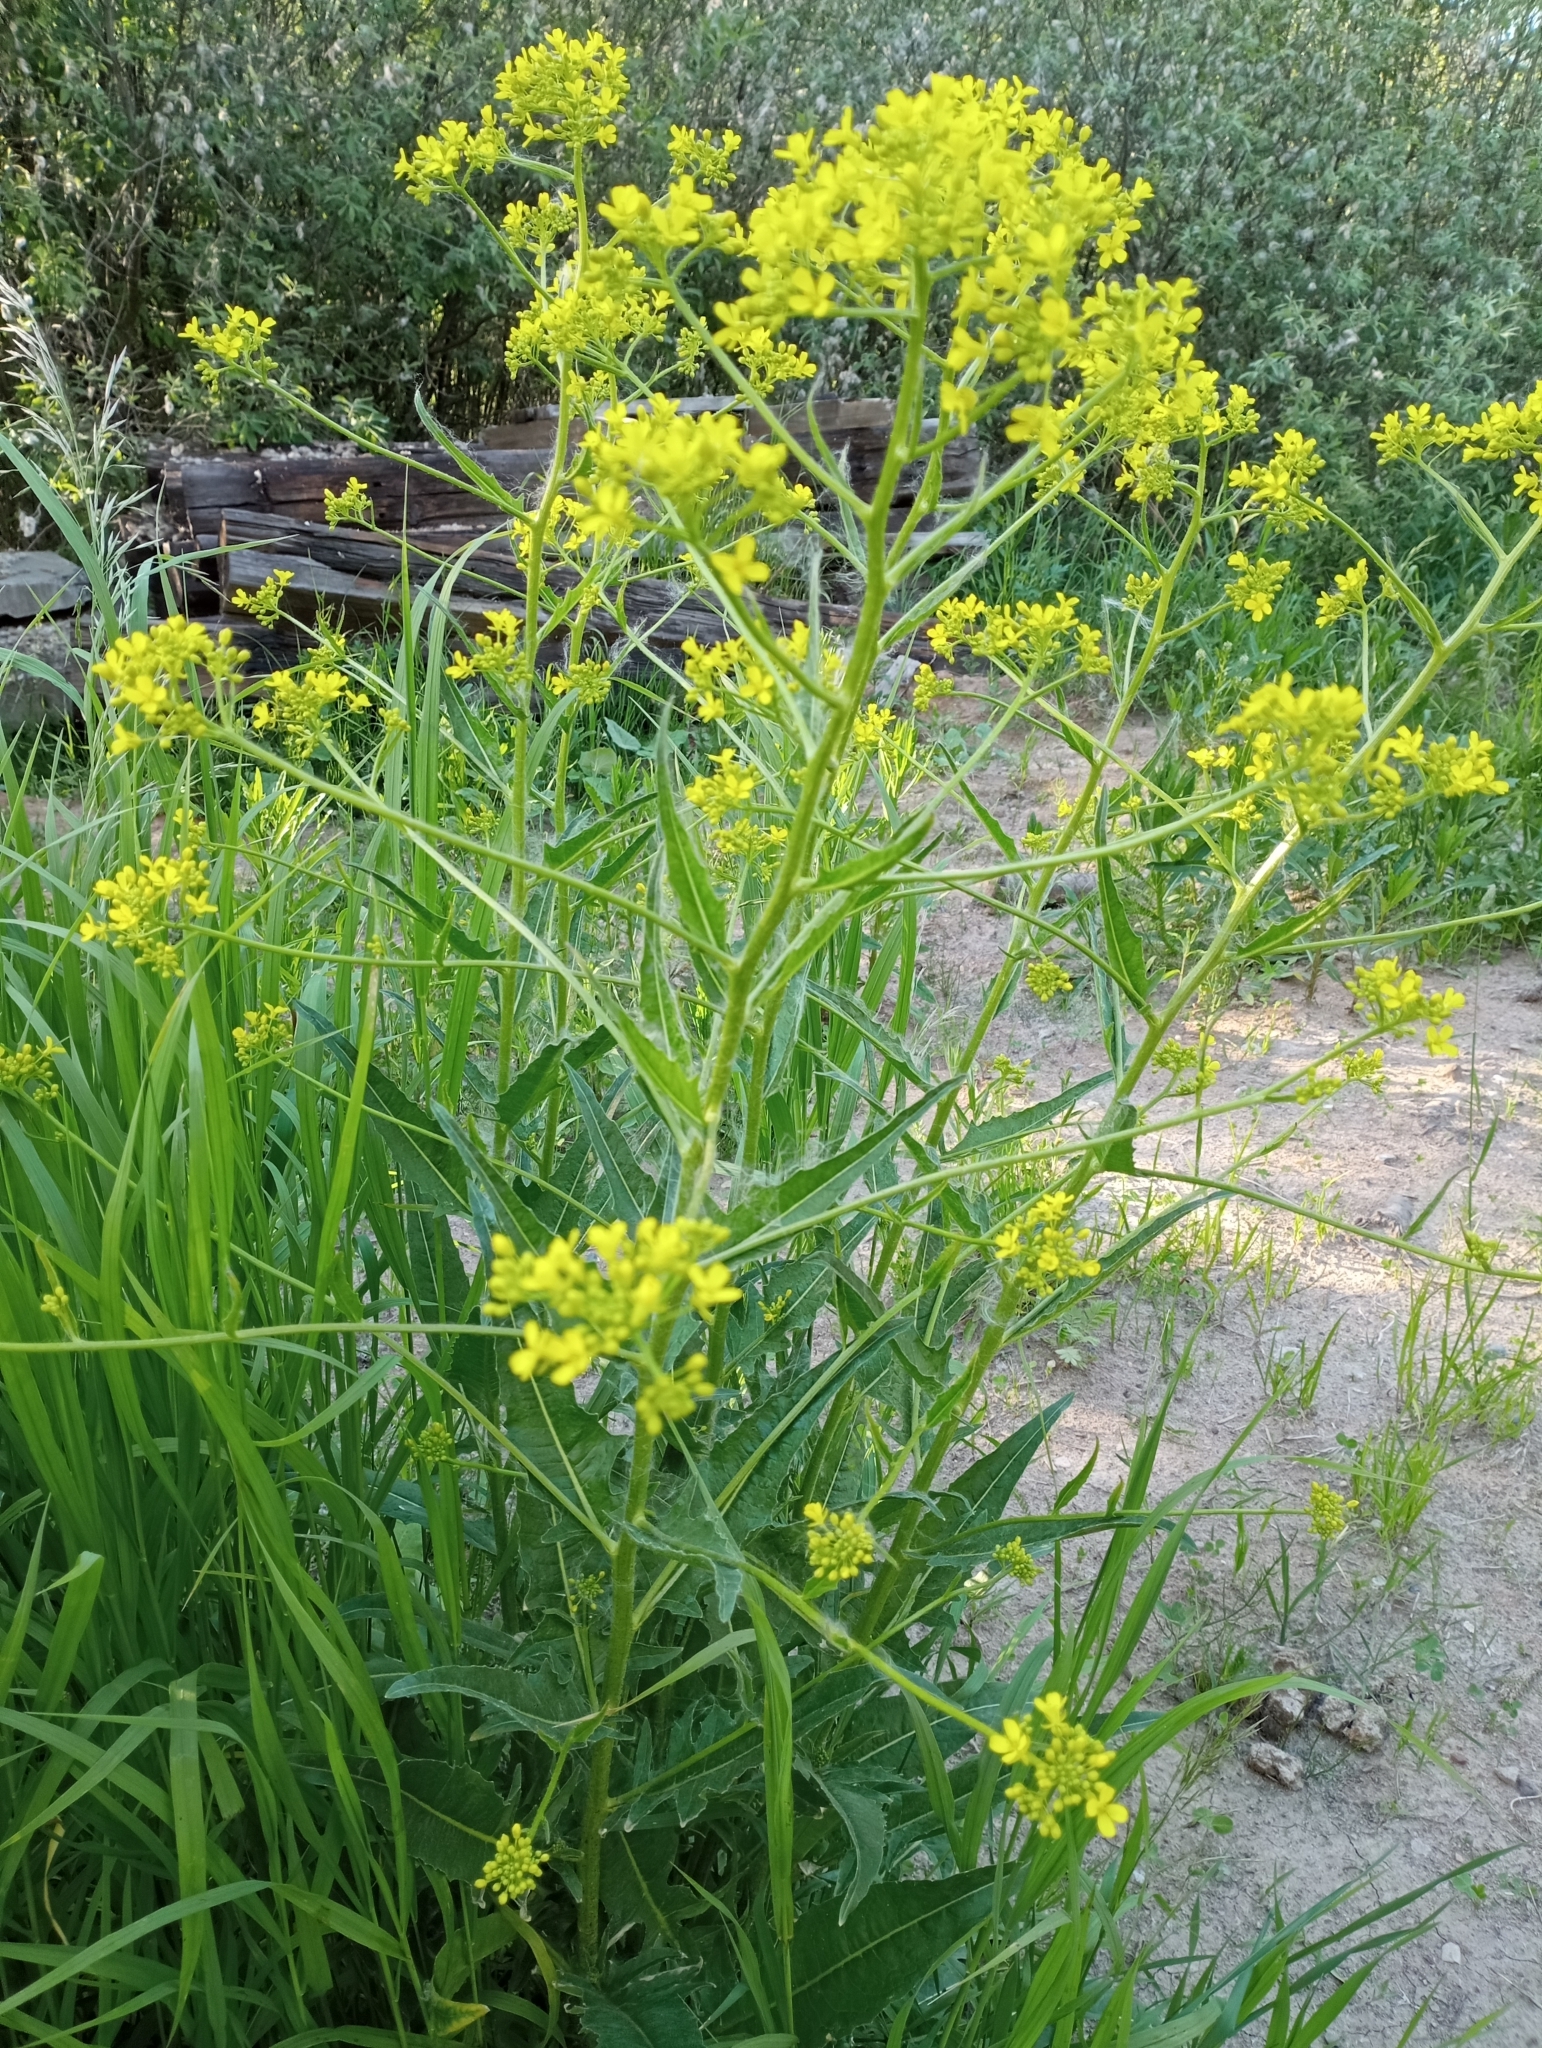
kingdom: Plantae
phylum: Tracheophyta
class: Magnoliopsida
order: Brassicales
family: Brassicaceae
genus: Bunias
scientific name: Bunias orientalis
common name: Warty-cabbage
